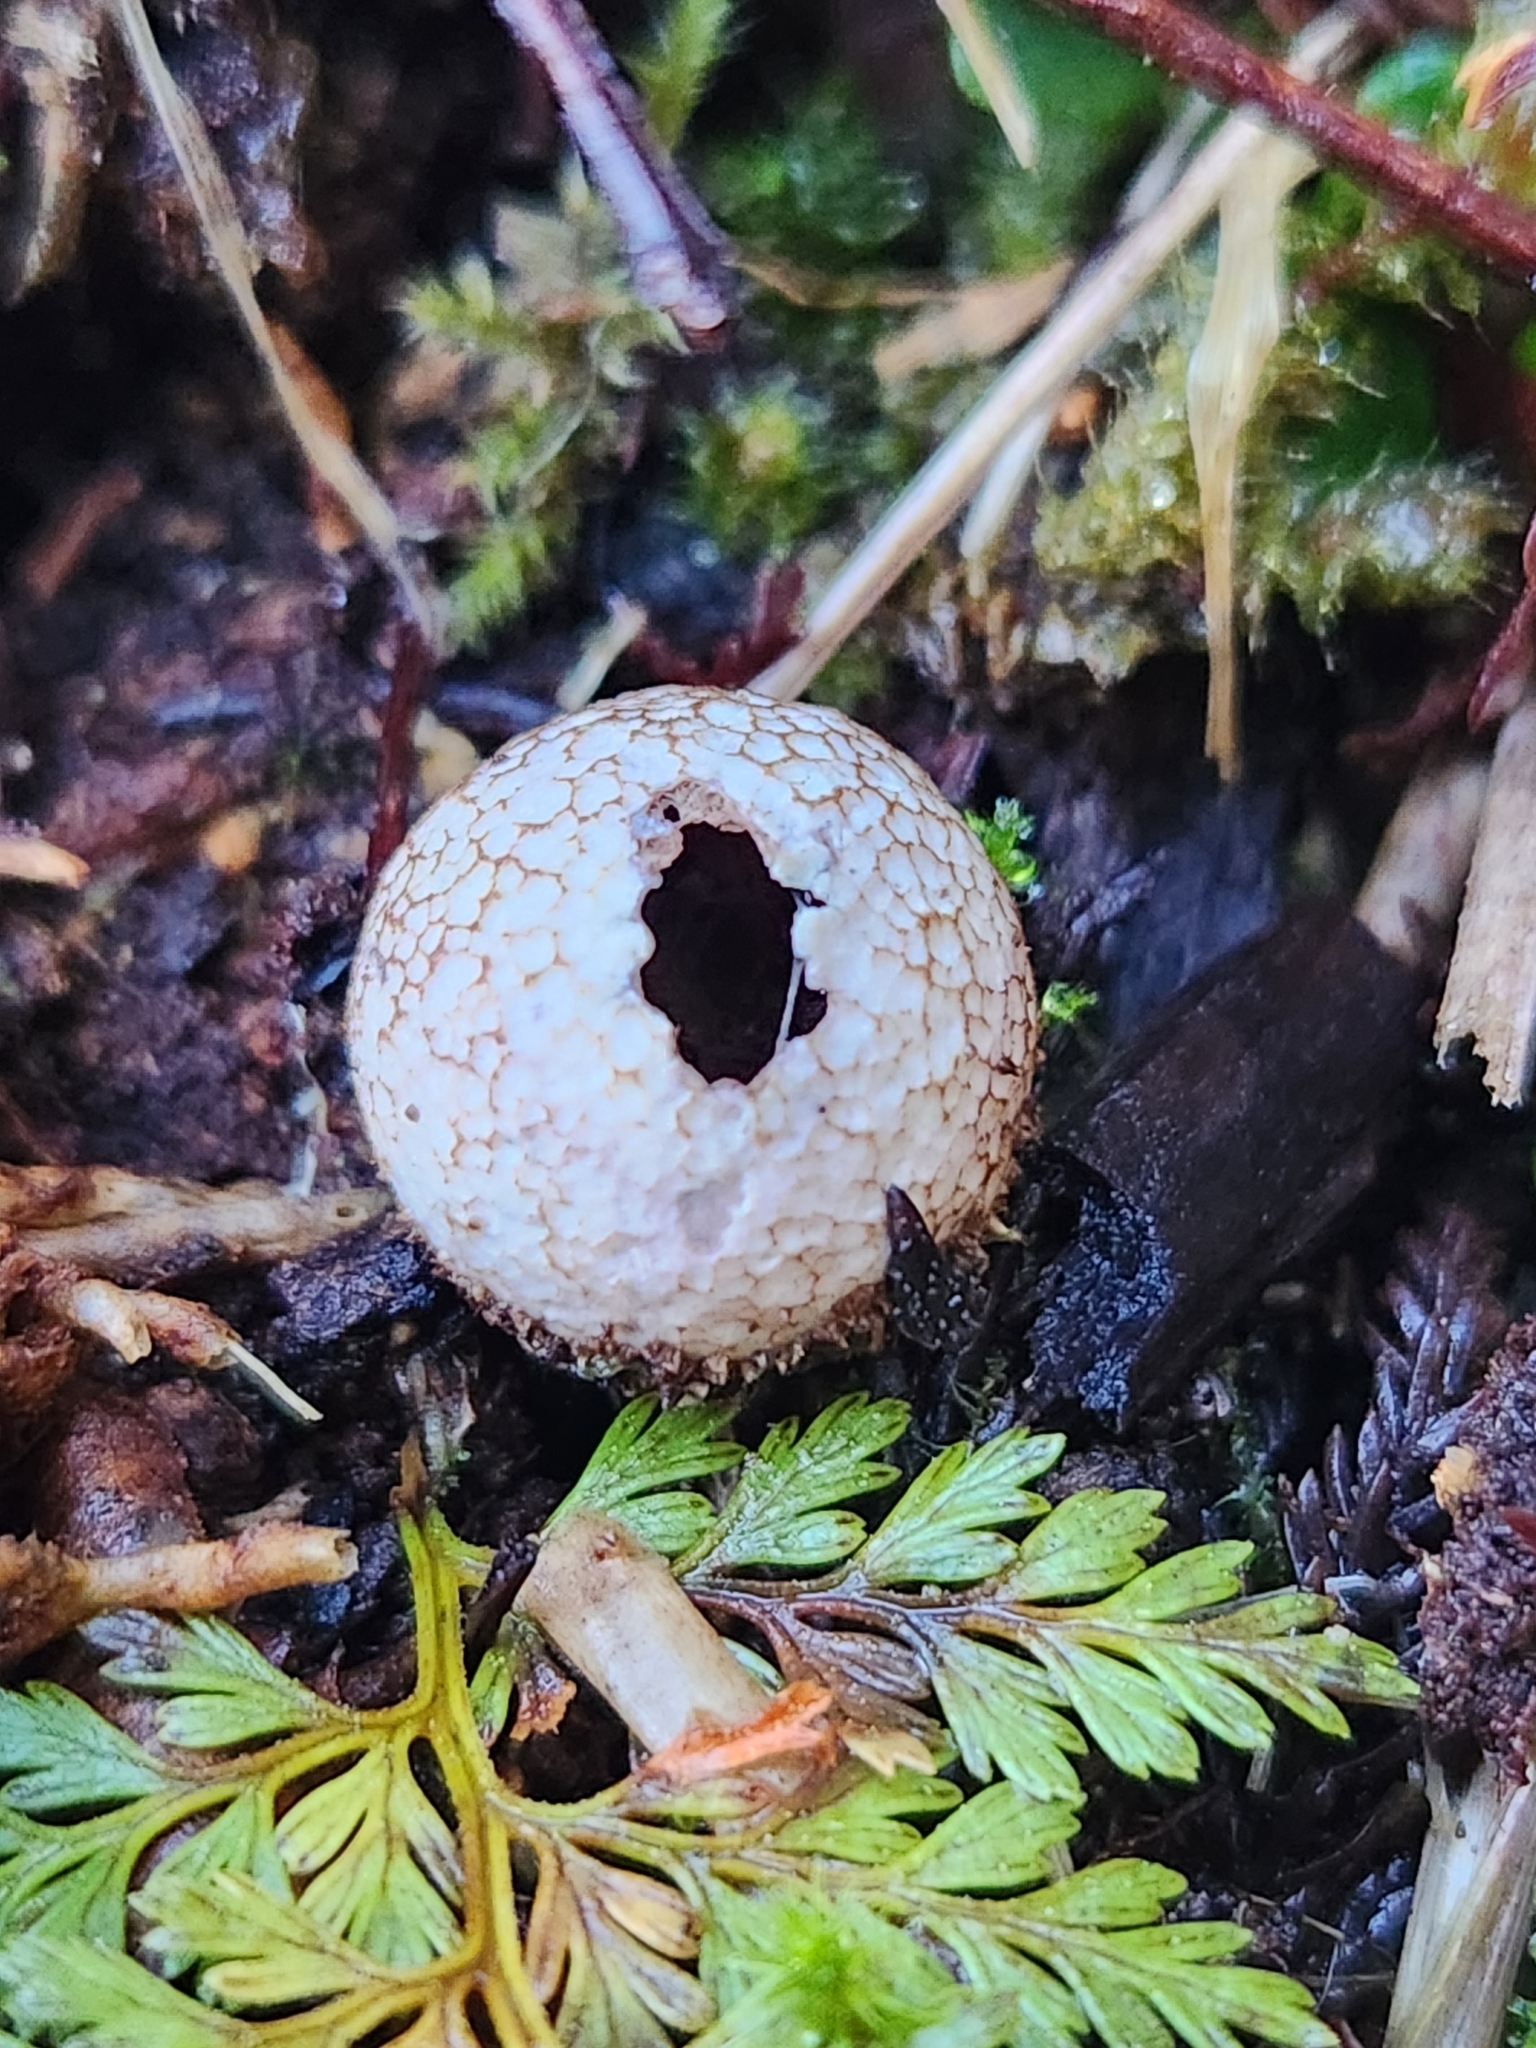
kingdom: Fungi
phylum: Basidiomycota
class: Agaricomycetes
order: Agaricales
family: Lycoperdaceae
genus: Lycoperdon
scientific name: Lycoperdon compactum
